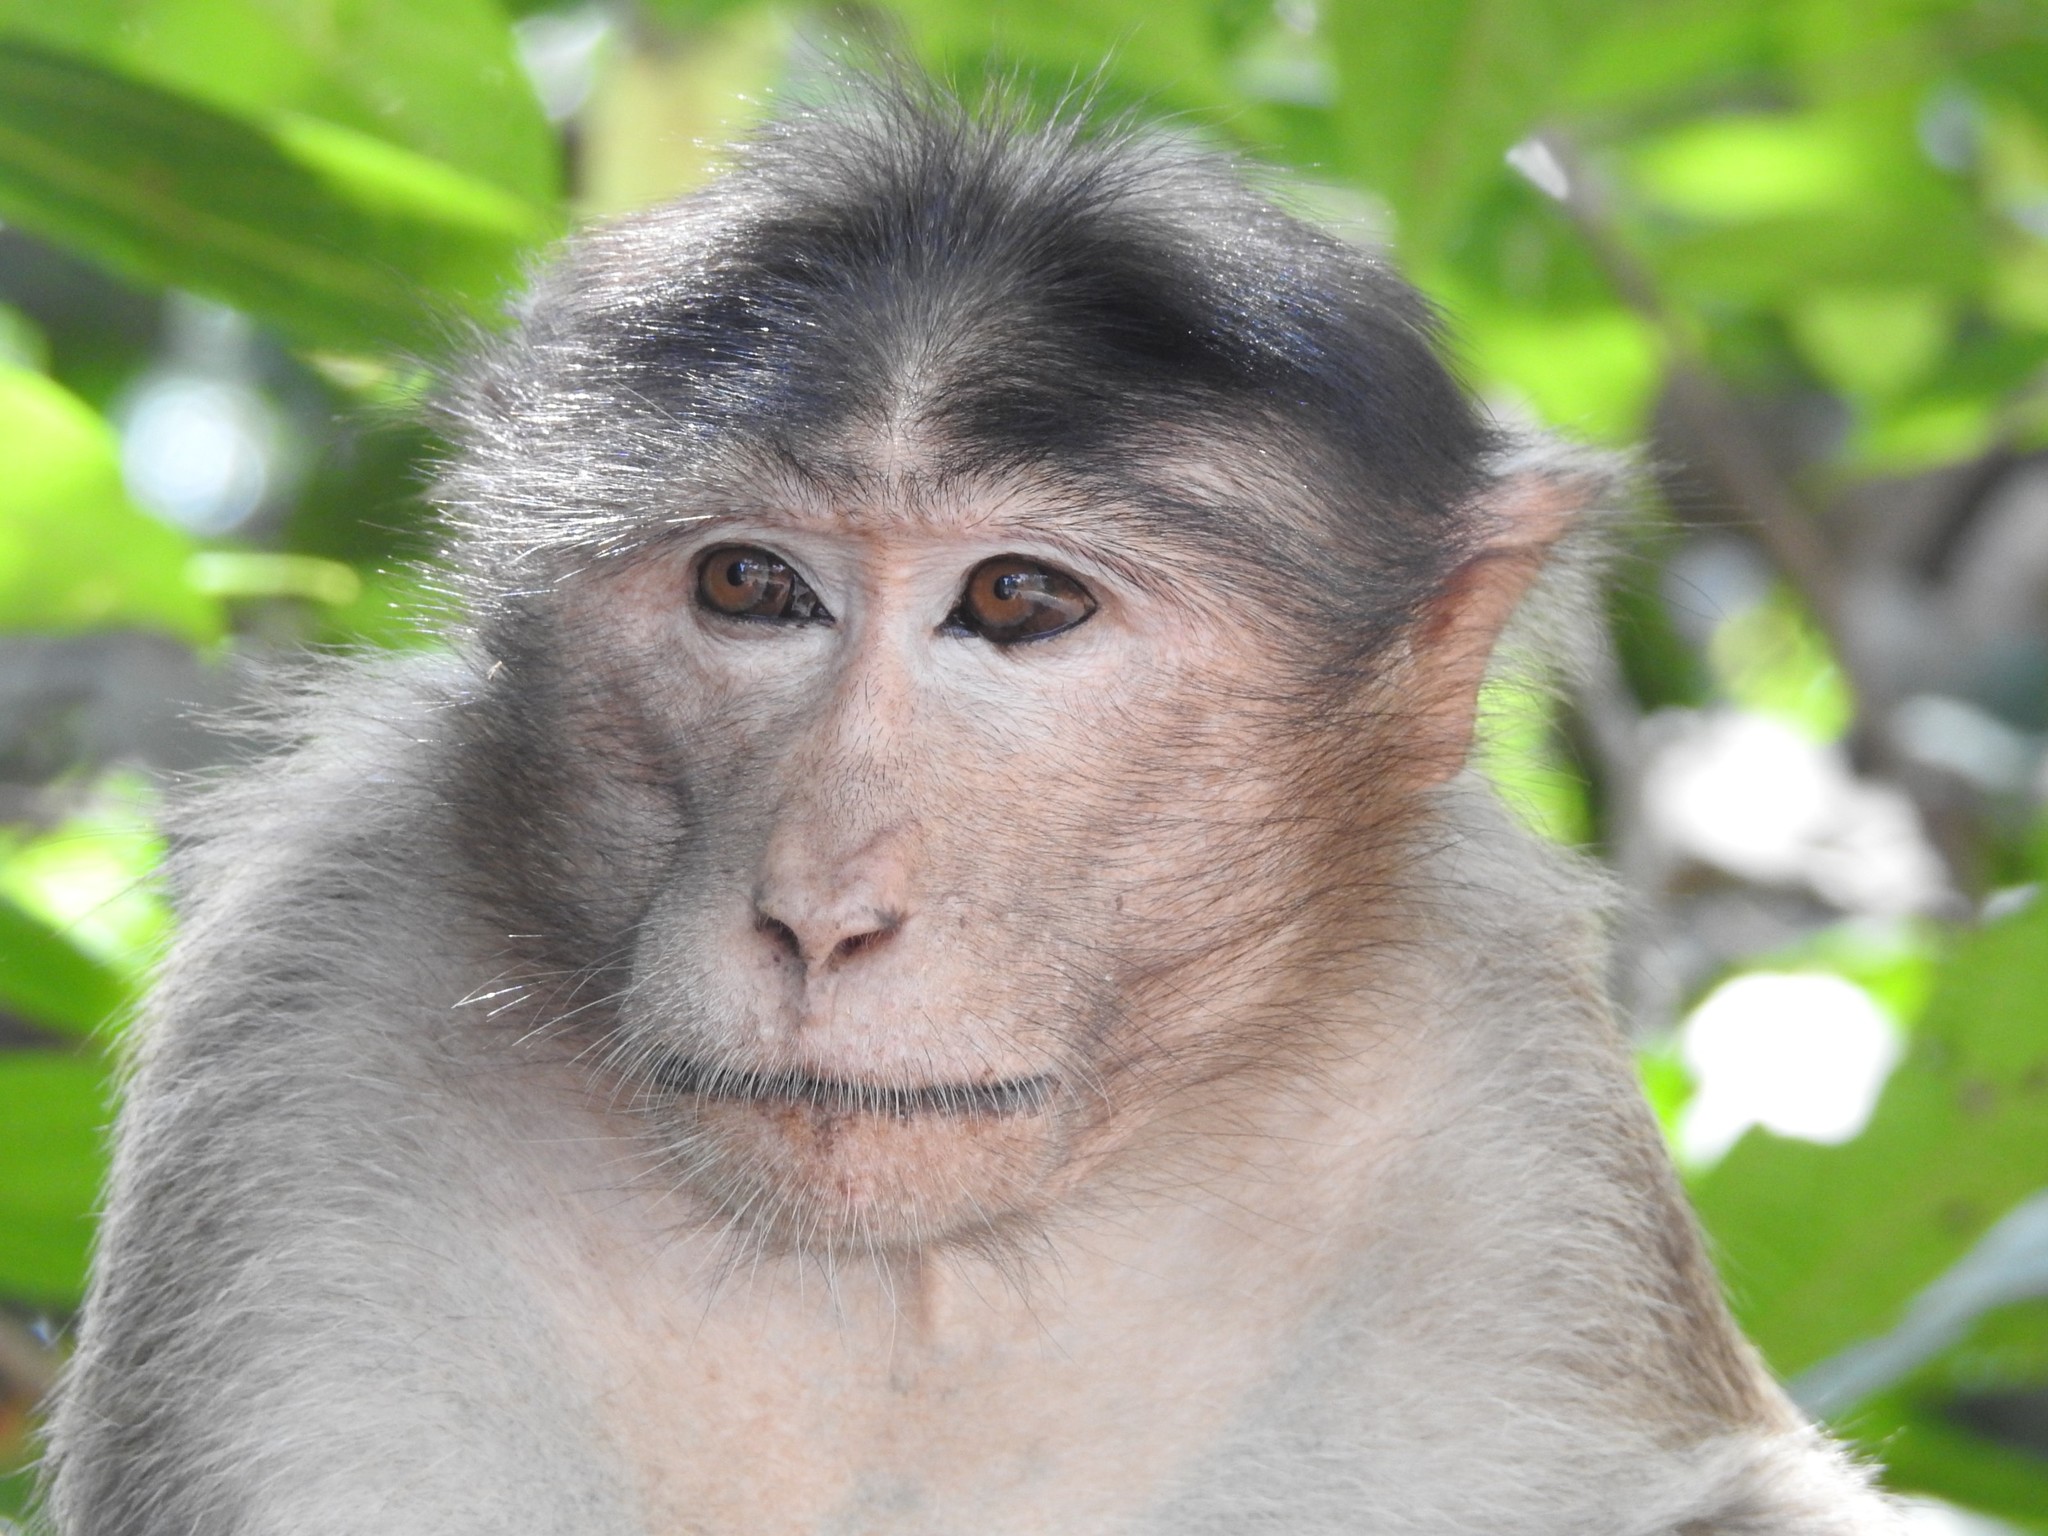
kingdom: Animalia
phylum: Chordata
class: Mammalia
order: Primates
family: Cercopithecidae
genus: Macaca
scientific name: Macaca radiata
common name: Bonnet macaque
